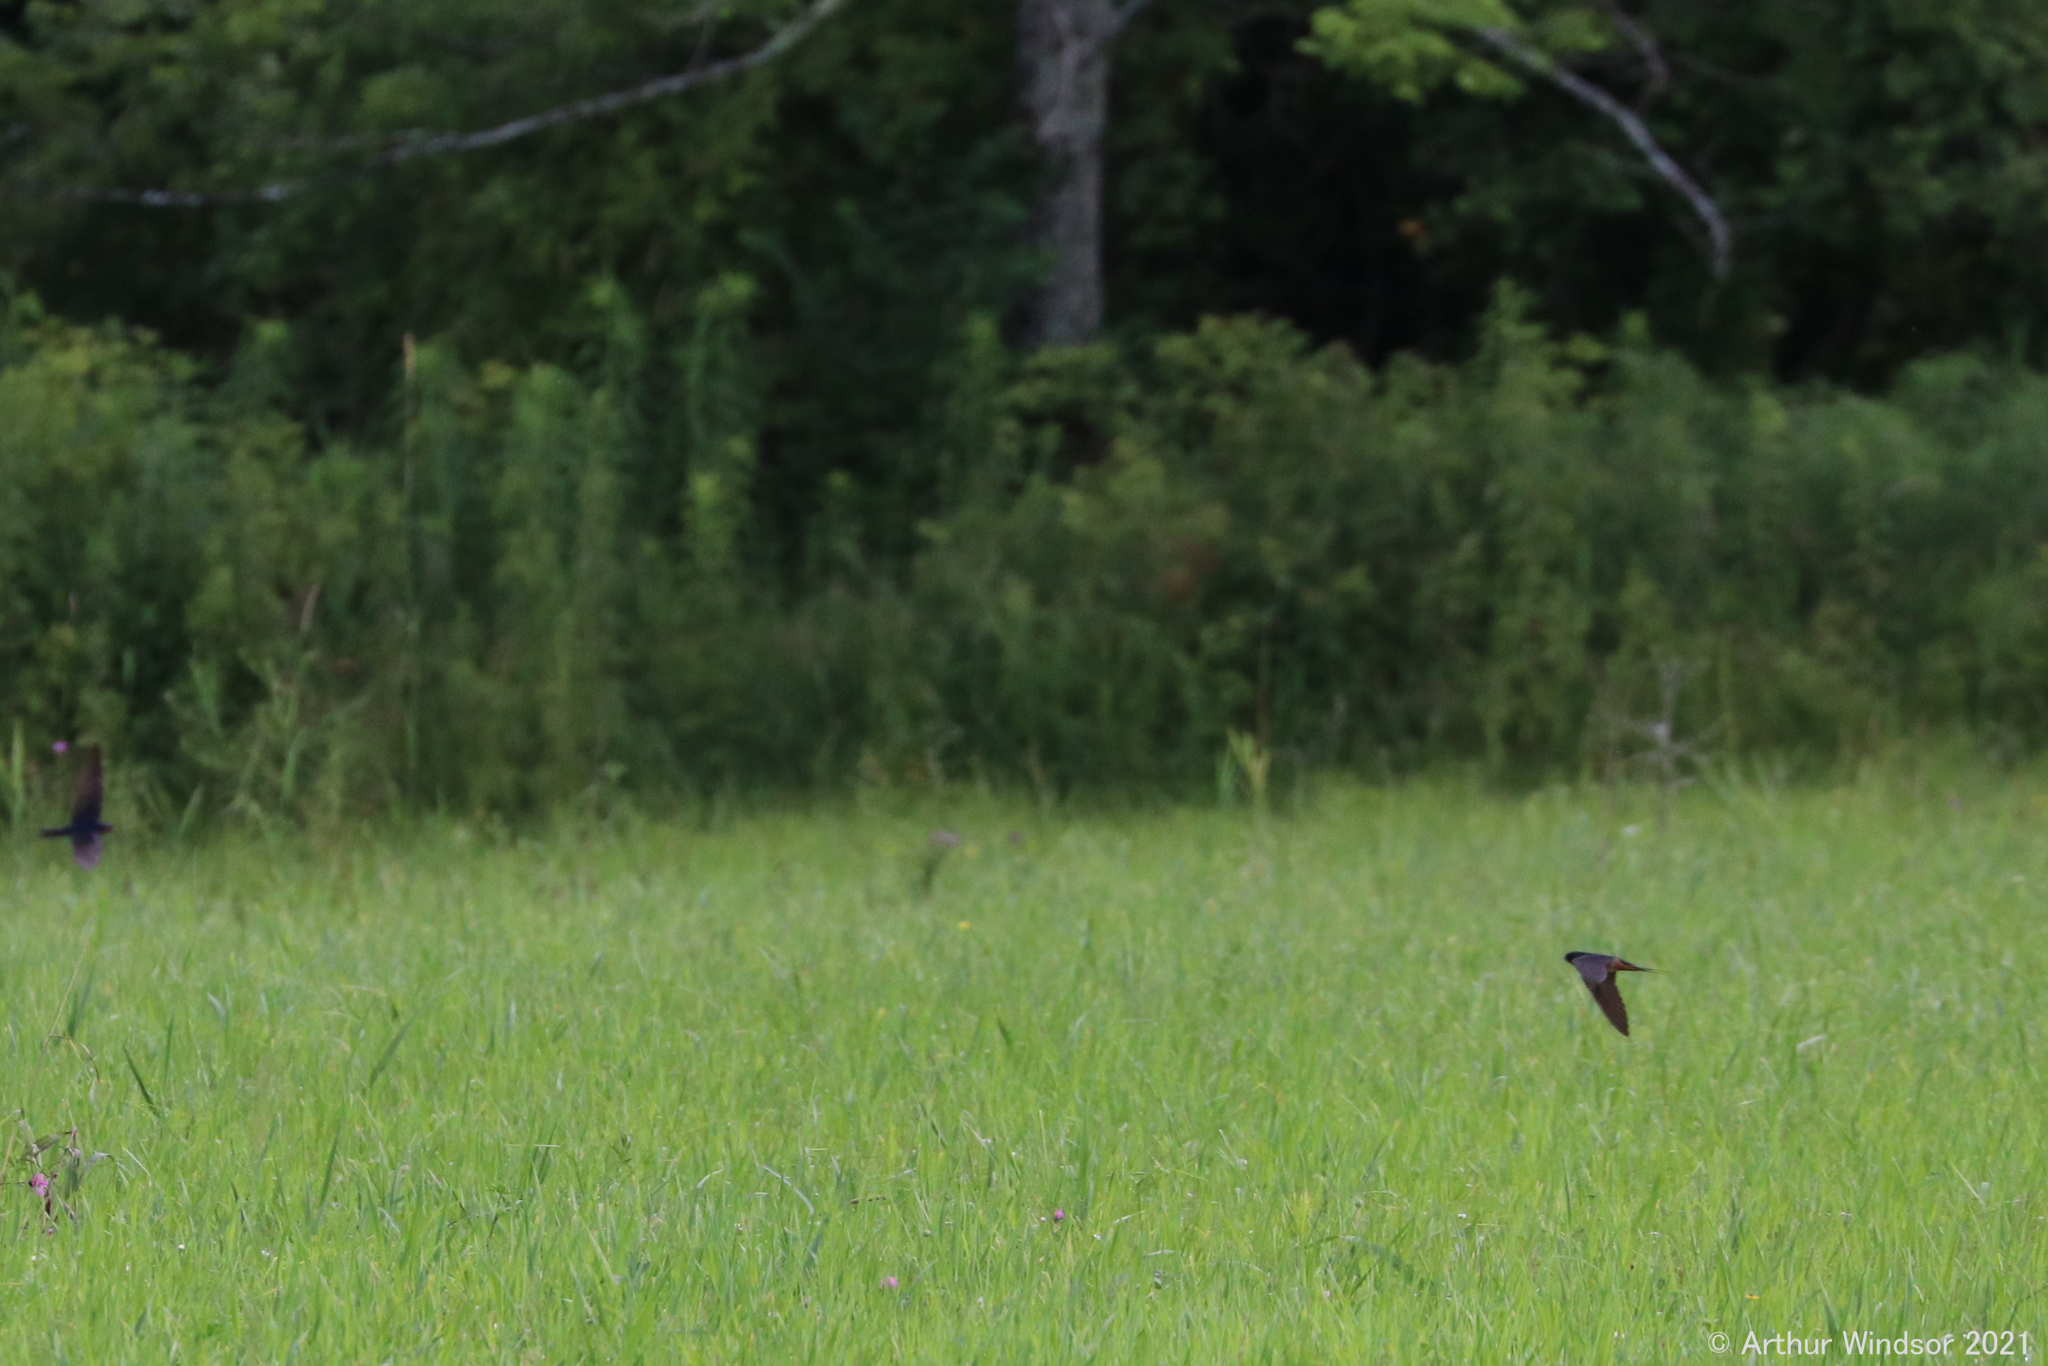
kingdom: Animalia
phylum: Chordata
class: Aves
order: Passeriformes
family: Hirundinidae
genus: Hirundo
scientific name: Hirundo rustica
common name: Barn swallow
